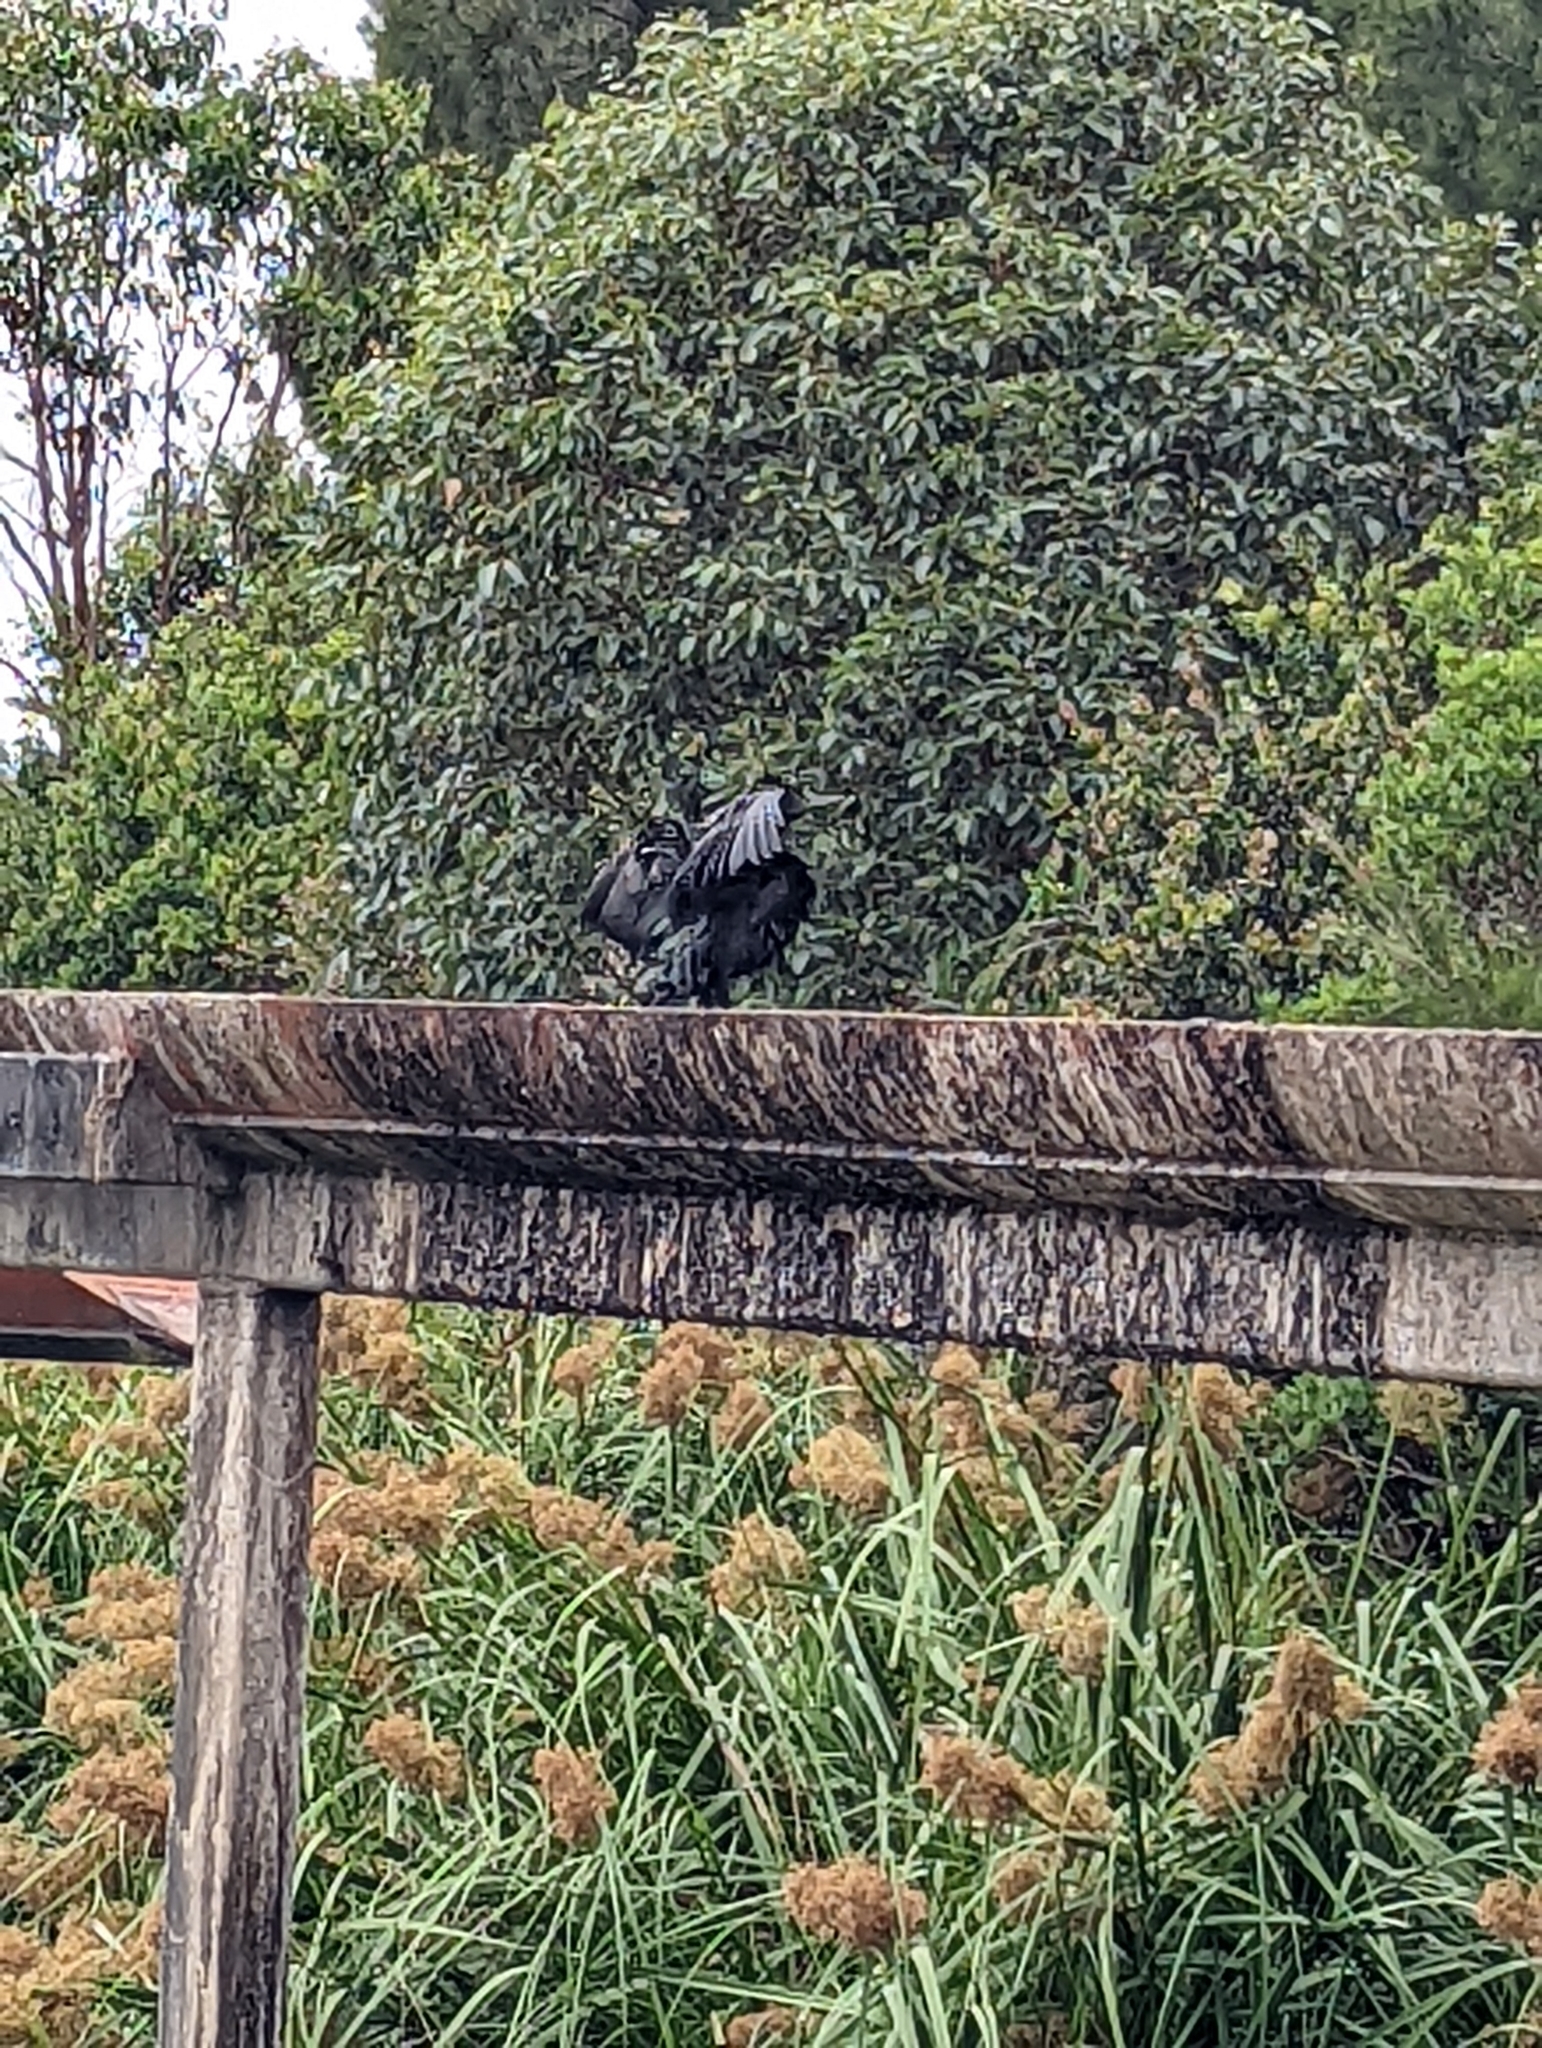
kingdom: Animalia
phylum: Chordata
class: Aves
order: Suliformes
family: Phalacrocoracidae
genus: Phalacrocorax
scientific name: Phalacrocorax sulcirostris
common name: Little black cormorant
